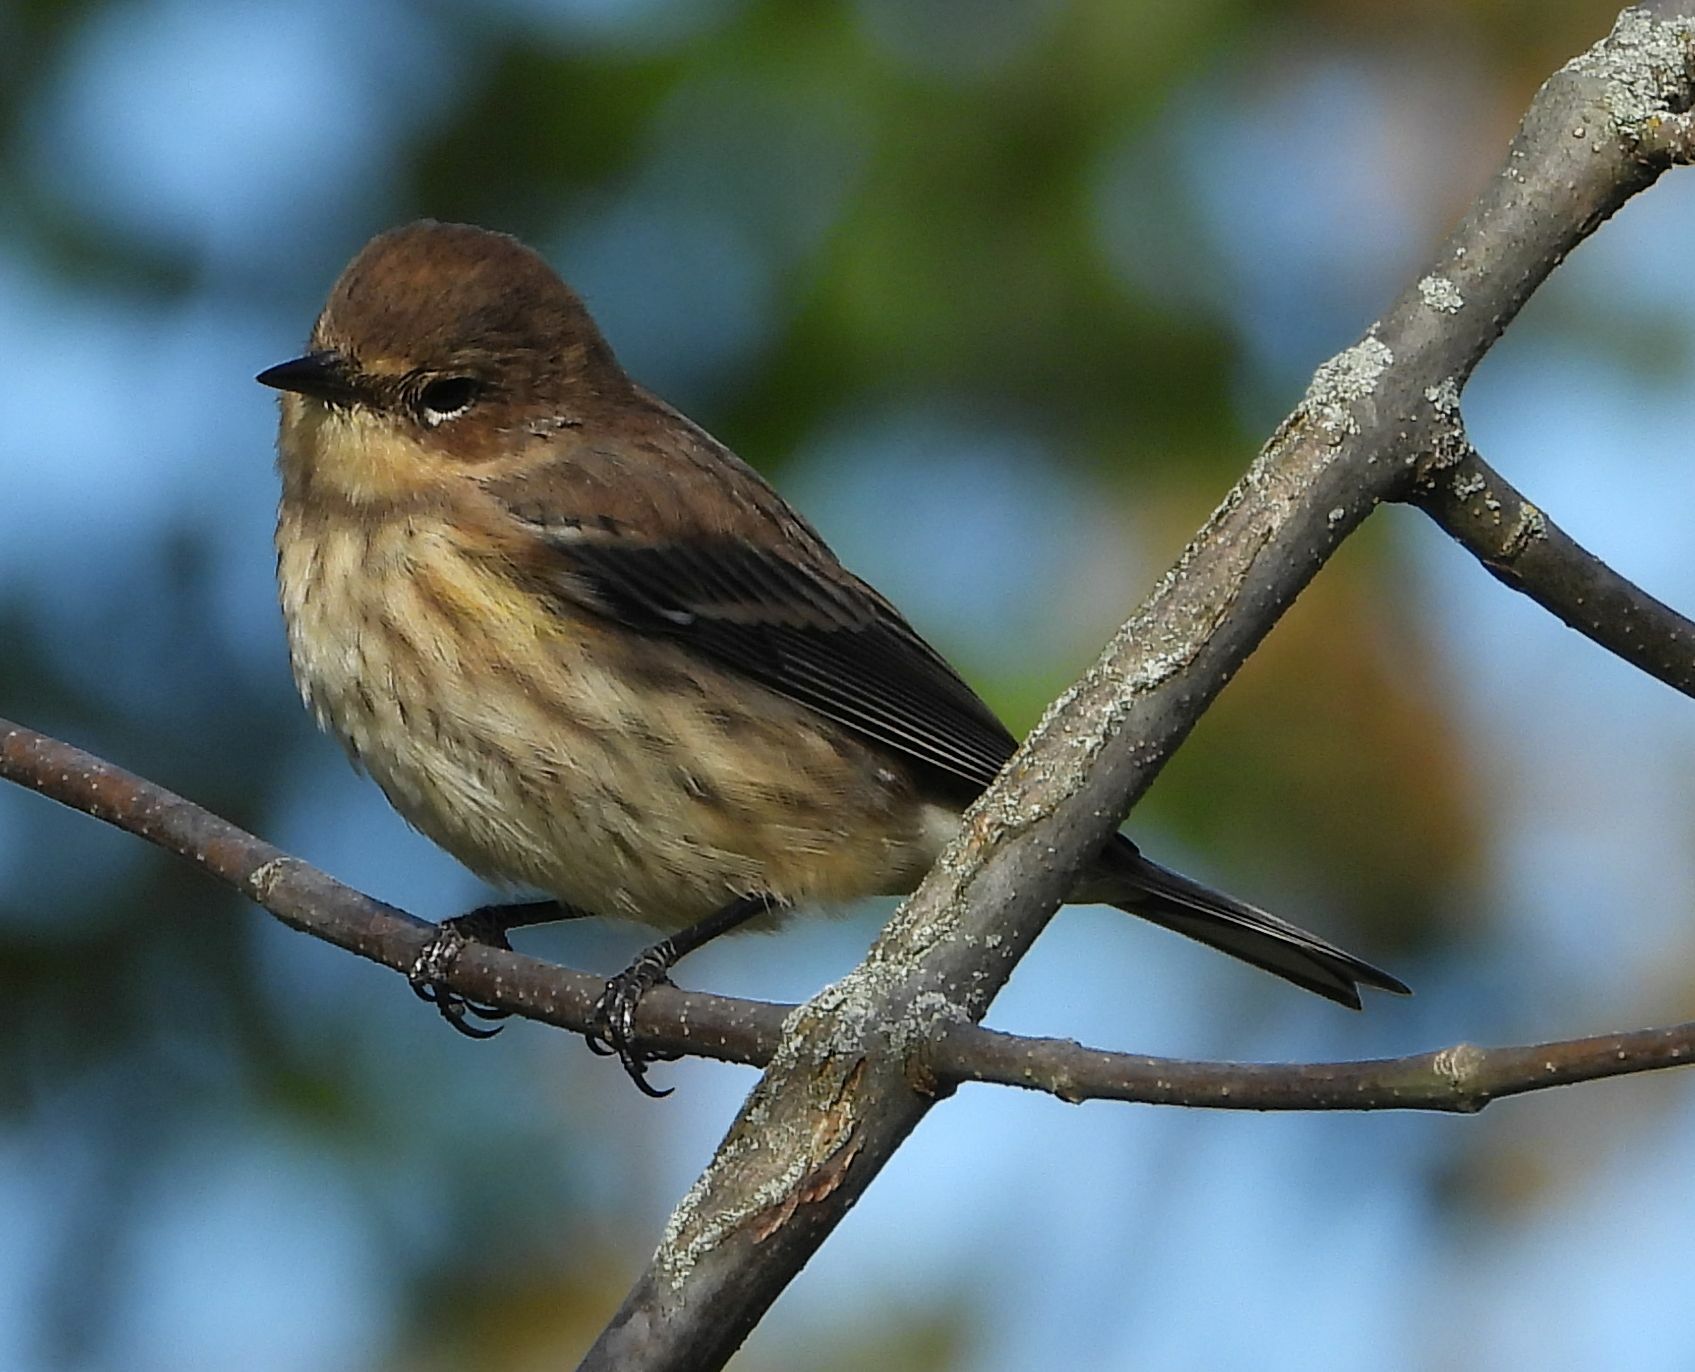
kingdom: Animalia
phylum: Chordata
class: Aves
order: Passeriformes
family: Parulidae
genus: Setophaga
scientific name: Setophaga coronata
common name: Myrtle warbler
